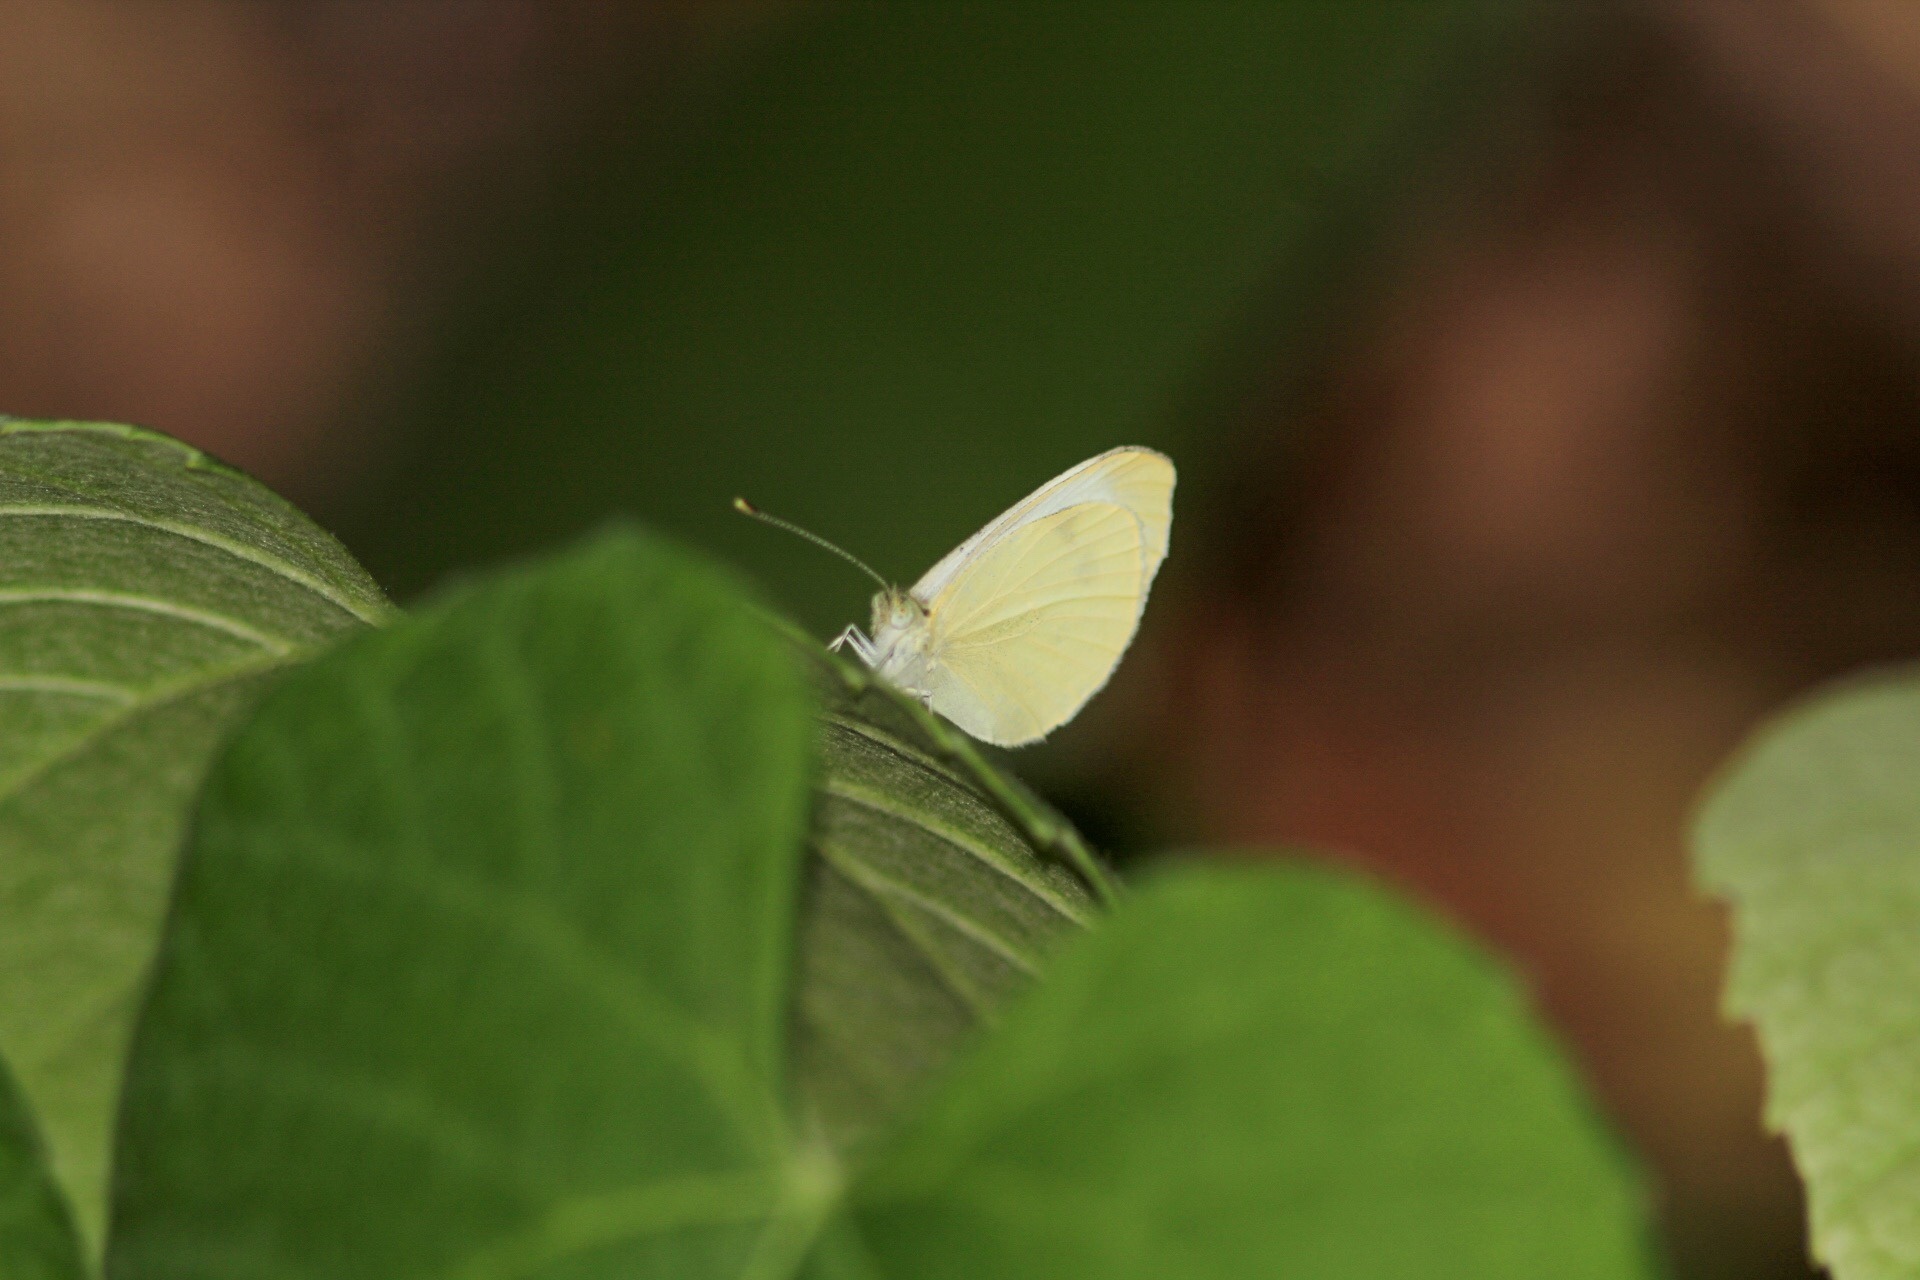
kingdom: Animalia
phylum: Arthropoda
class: Insecta
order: Lepidoptera
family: Pieridae
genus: Pieris
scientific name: Pieris rapae
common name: Small white
